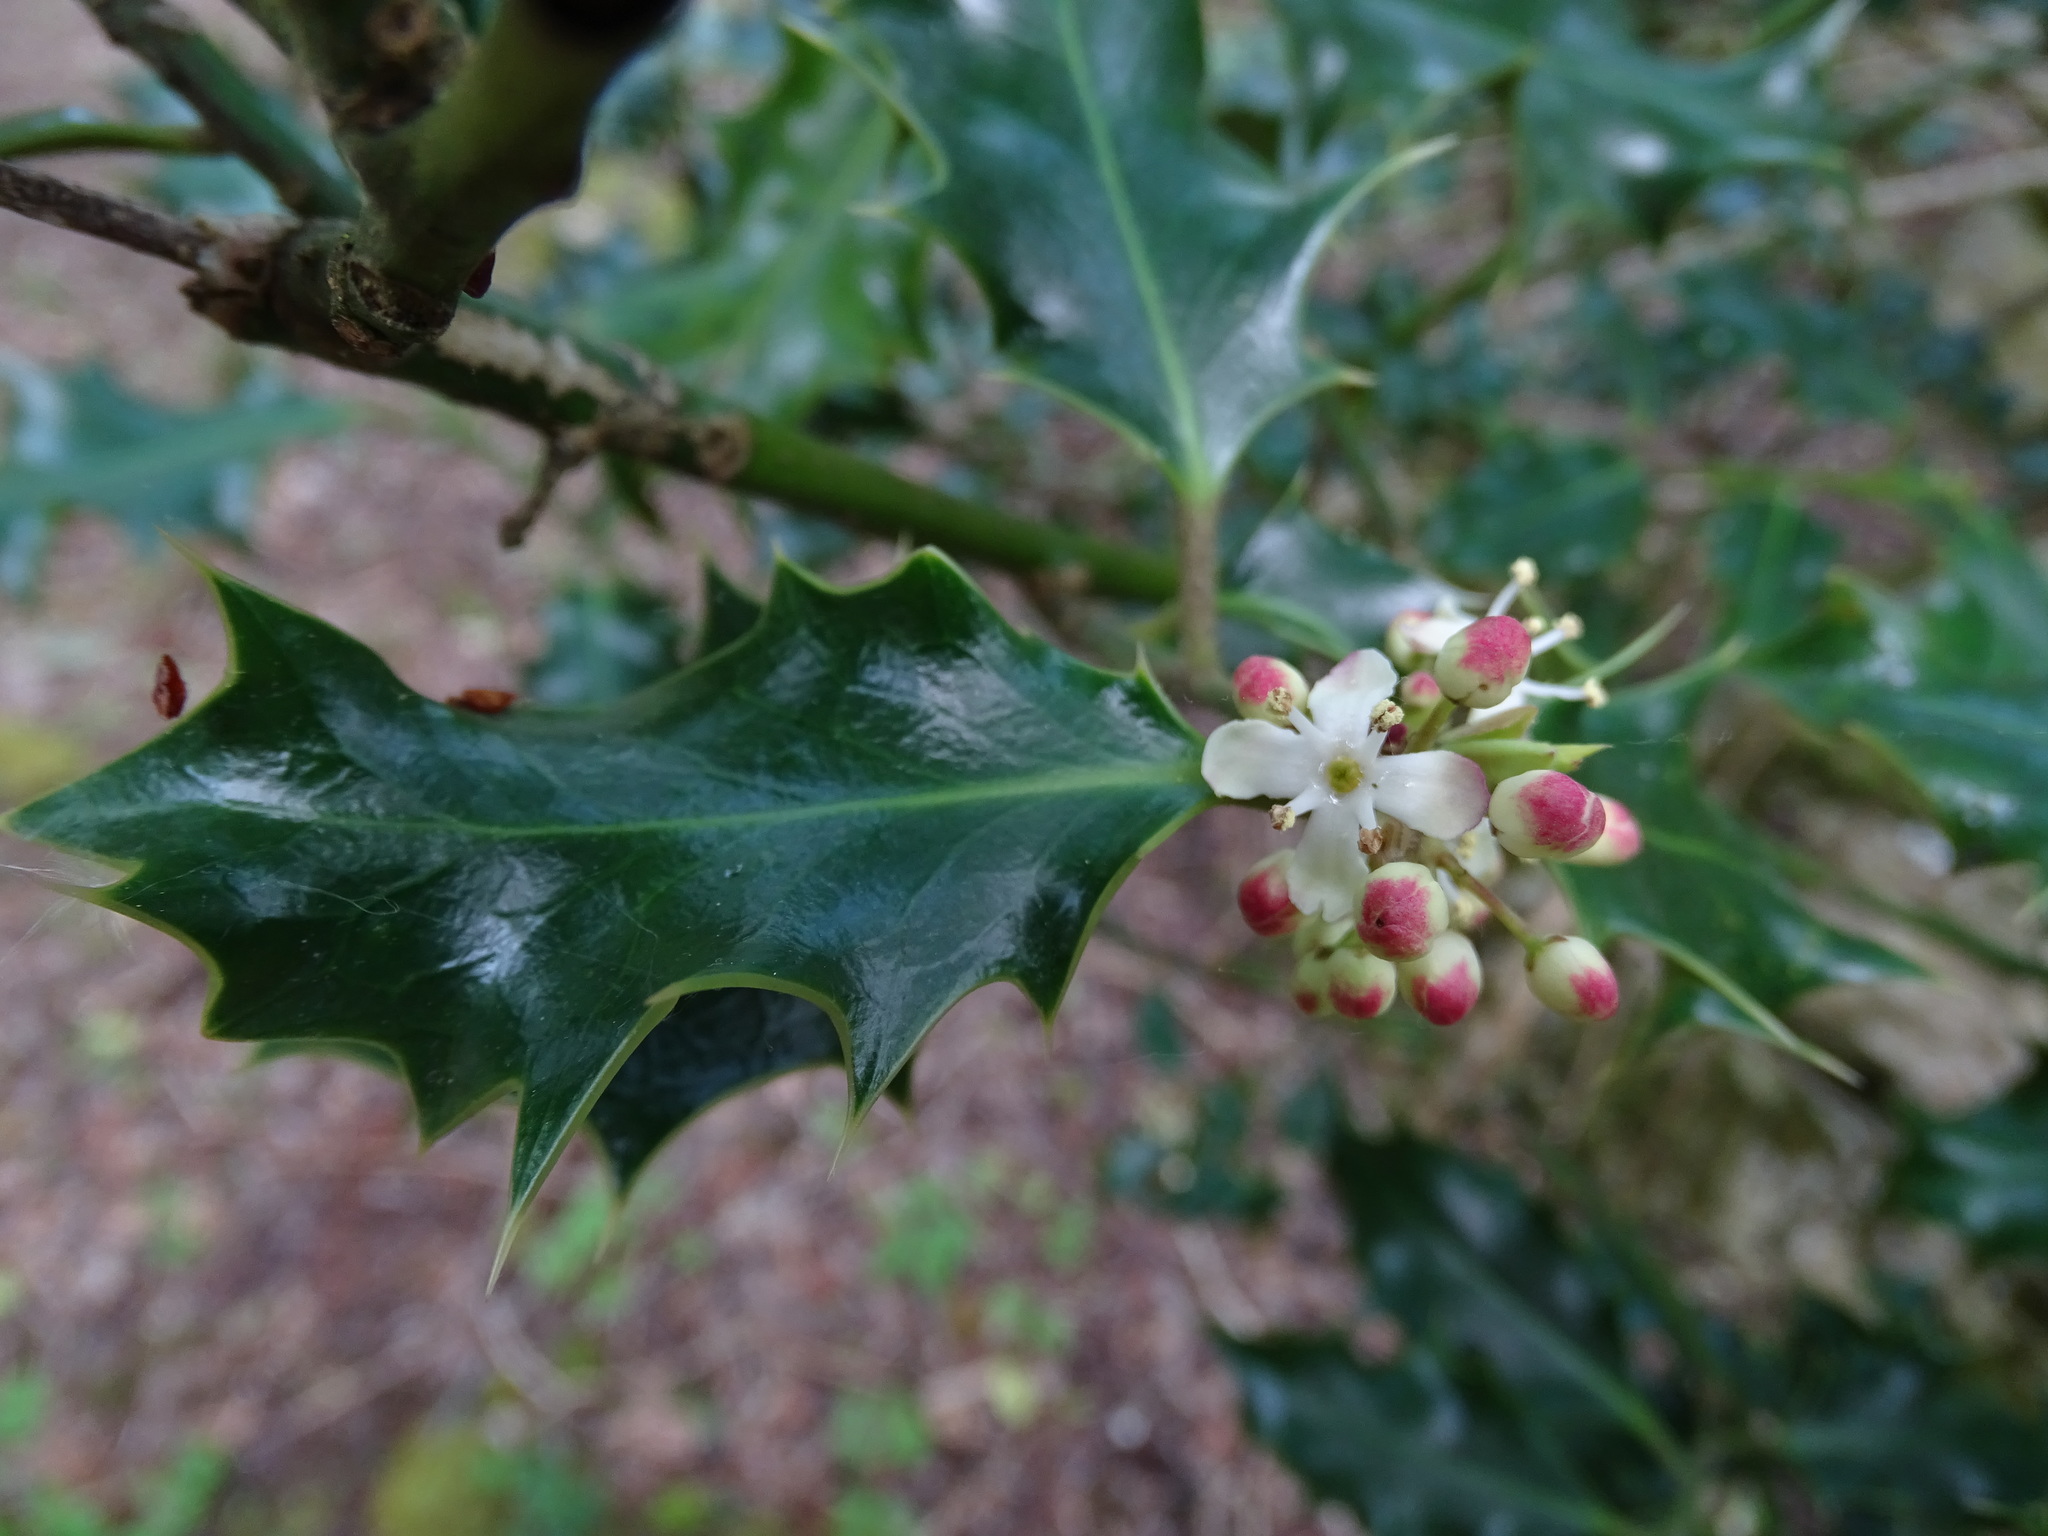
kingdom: Plantae
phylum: Tracheophyta
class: Magnoliopsida
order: Aquifoliales
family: Aquifoliaceae
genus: Ilex
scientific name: Ilex aquifolium
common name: English holly
